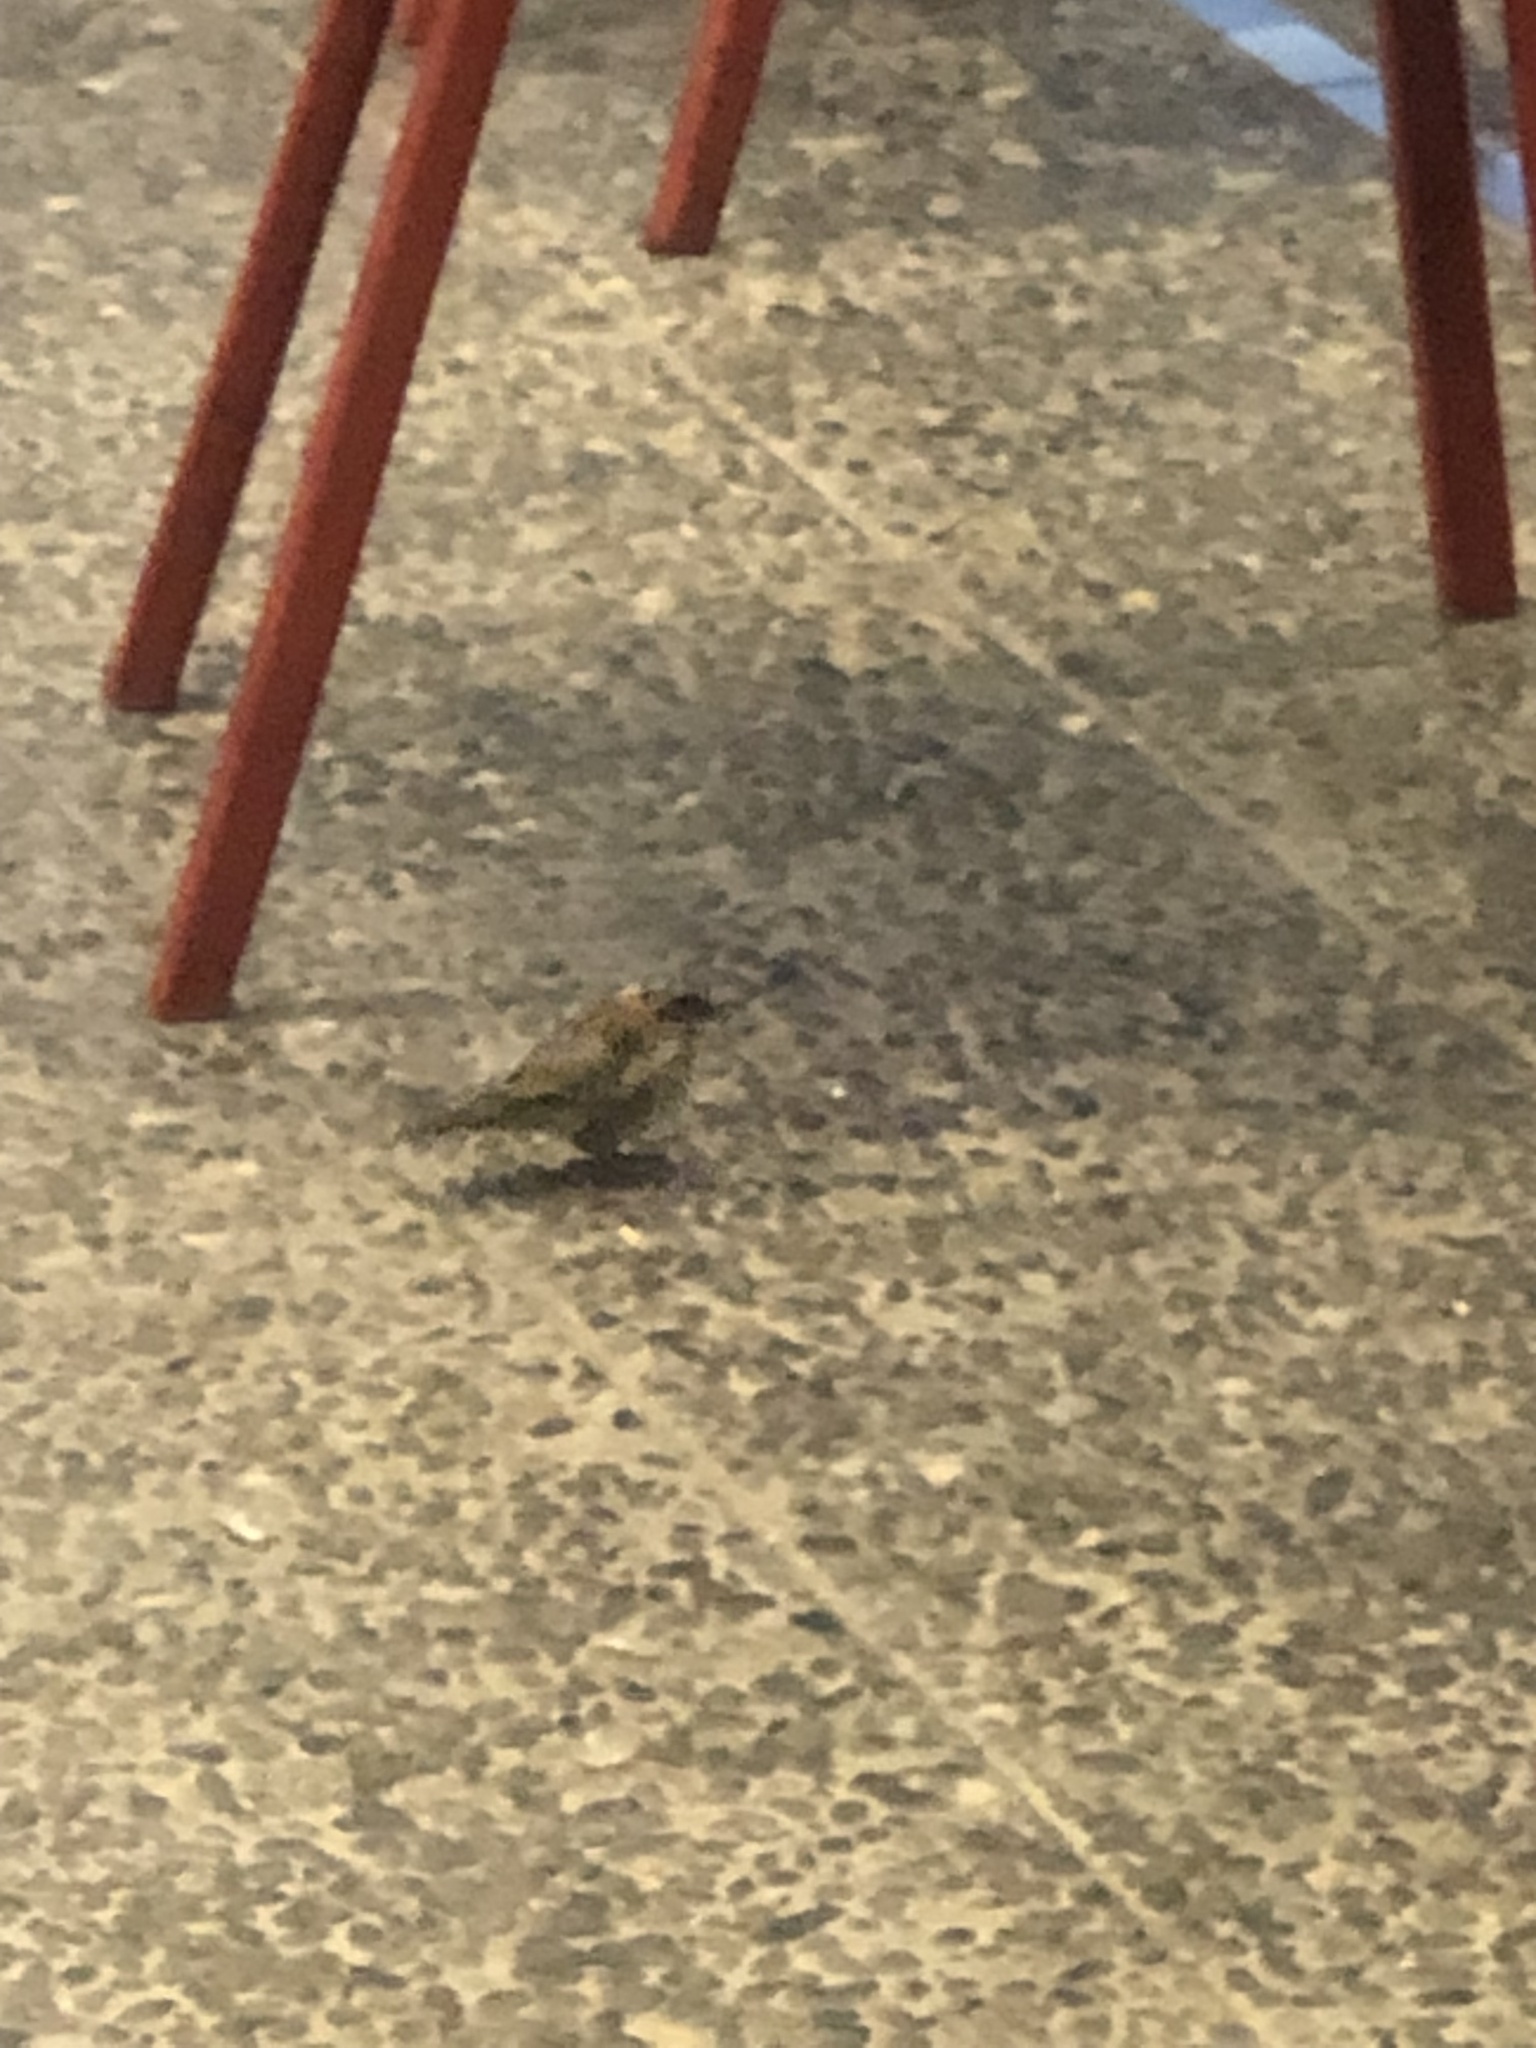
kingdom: Animalia
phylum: Chordata
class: Aves
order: Passeriformes
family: Passerellidae
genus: Zonotrichia
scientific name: Zonotrichia capensis
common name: Rufous-collared sparrow
